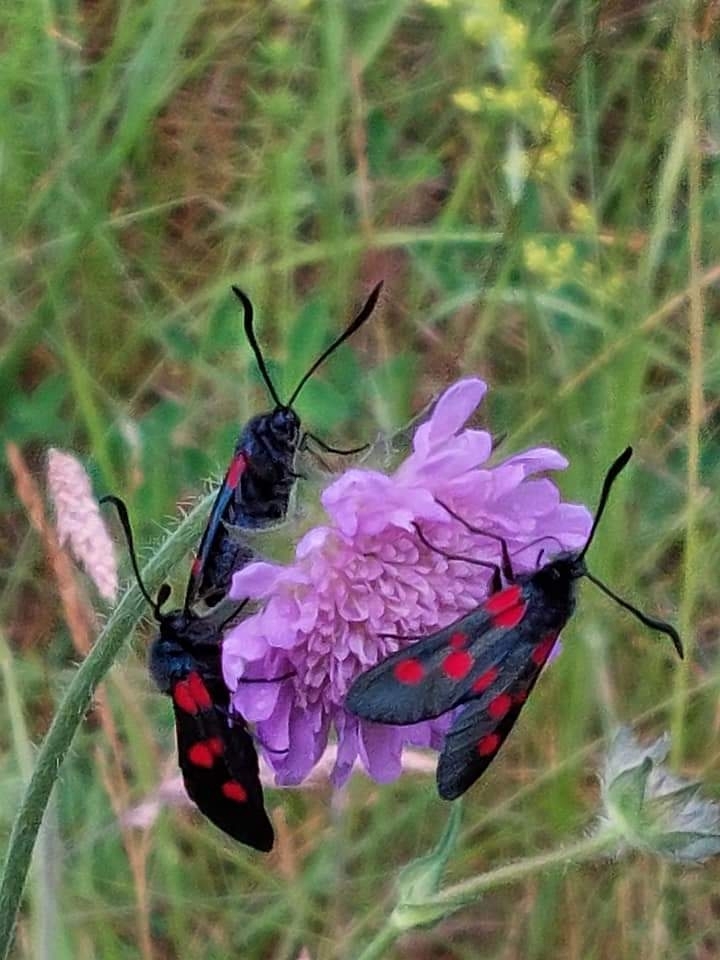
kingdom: Animalia
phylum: Arthropoda
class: Insecta
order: Lepidoptera
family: Zygaenidae
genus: Zygaena
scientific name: Zygaena lonicerae
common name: Narrow-bordered five-spot burnet
